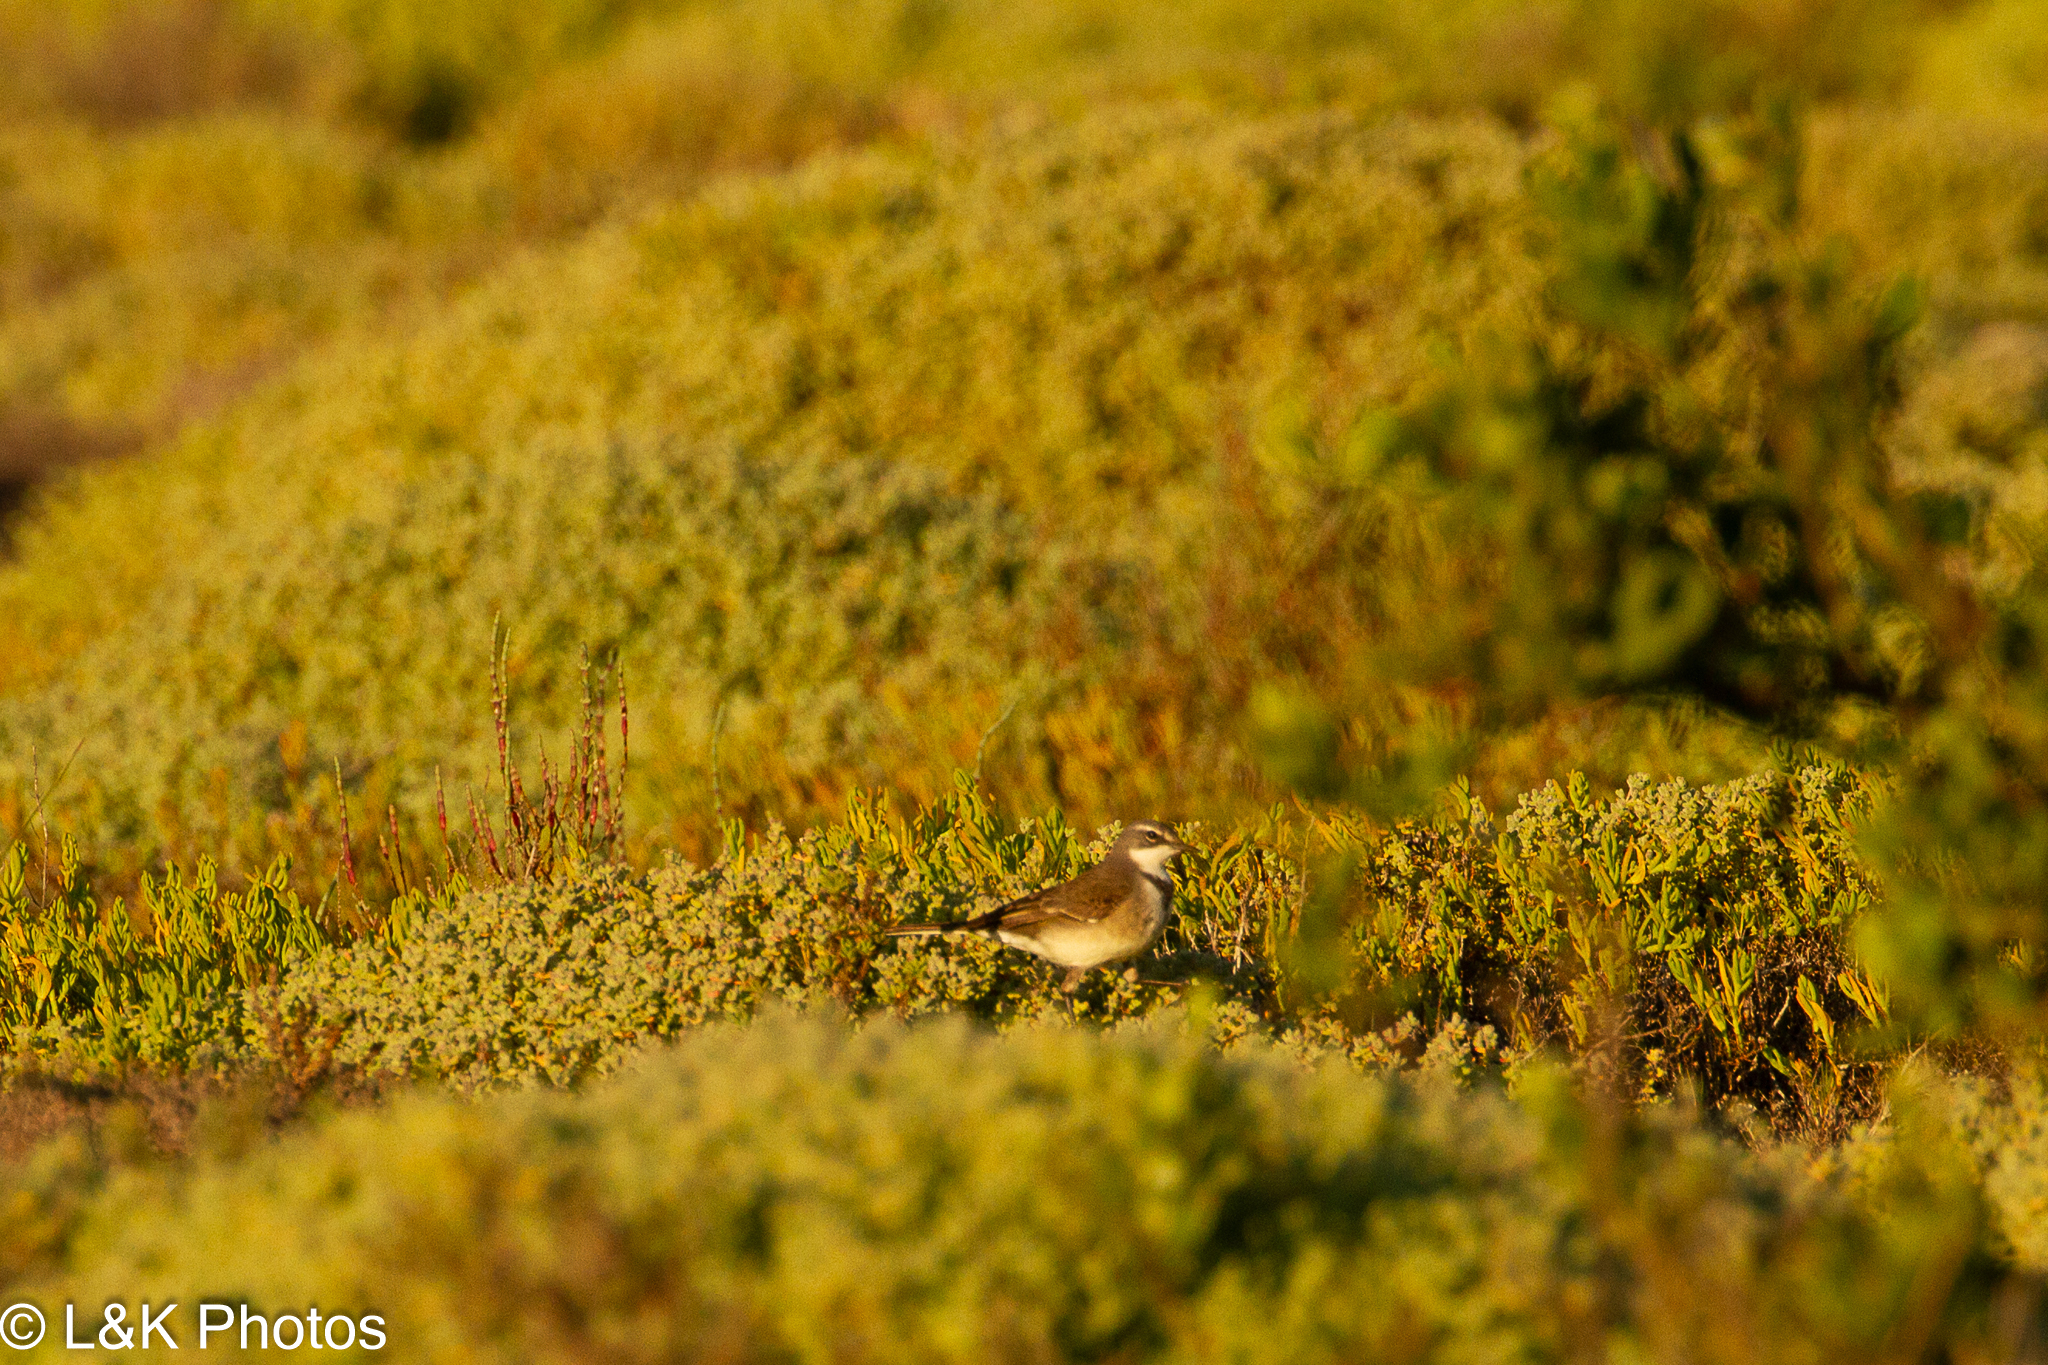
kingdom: Animalia
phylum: Chordata
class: Aves
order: Passeriformes
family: Motacillidae
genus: Motacilla
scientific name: Motacilla capensis
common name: Cape wagtail
